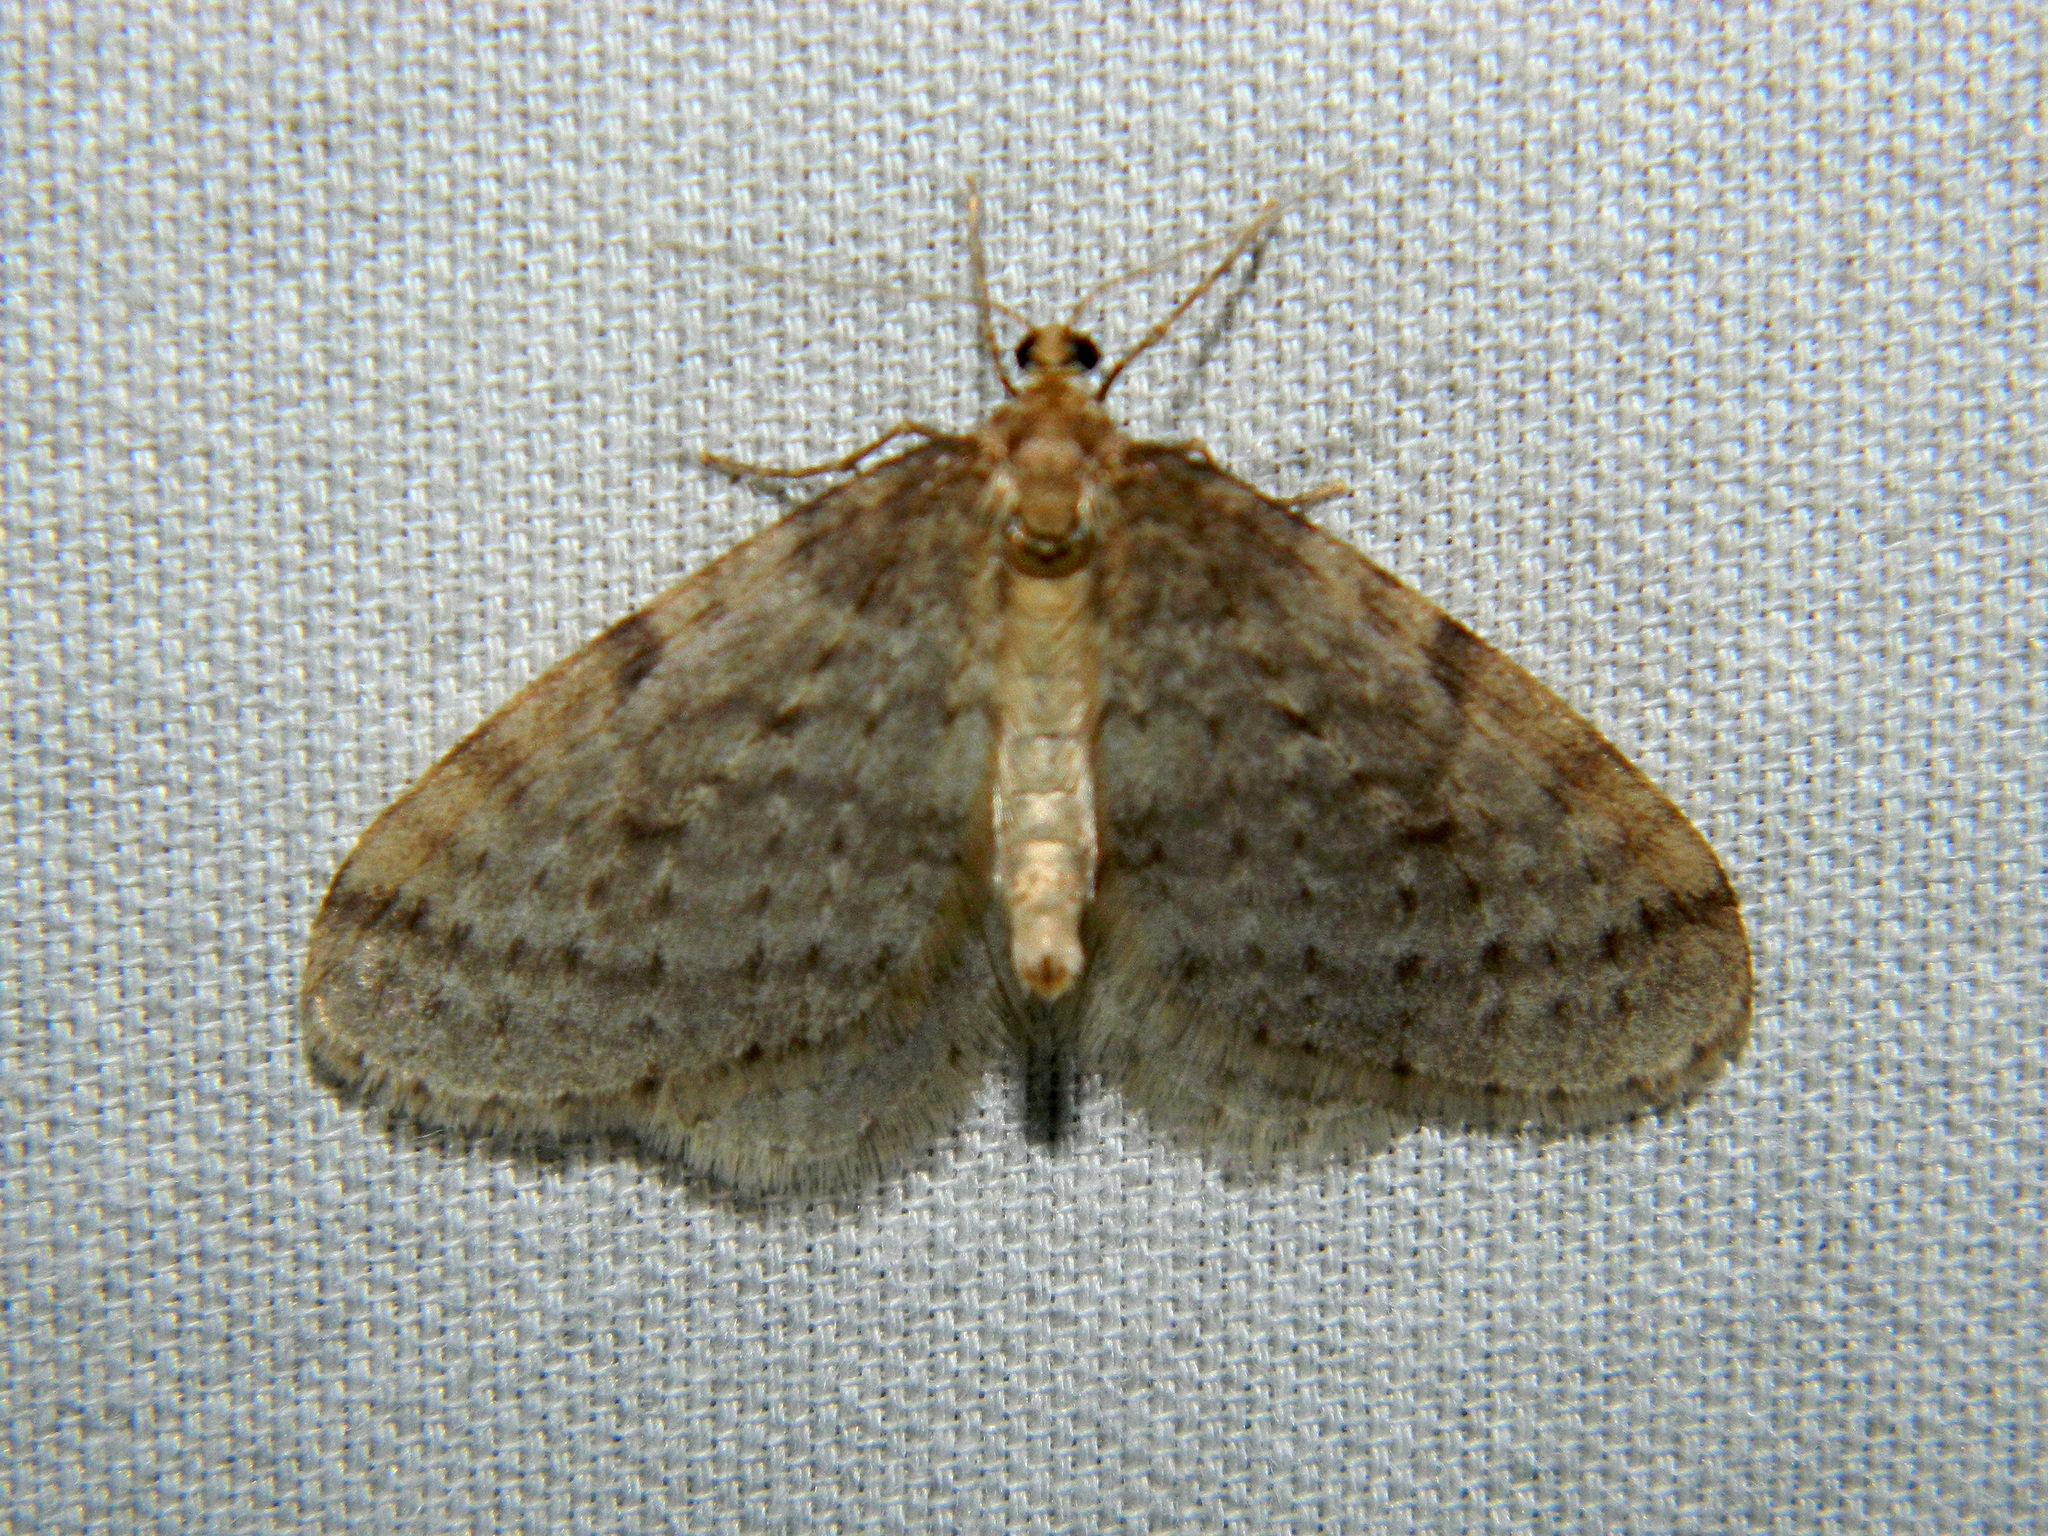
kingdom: Animalia
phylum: Arthropoda
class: Insecta
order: Lepidoptera
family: Geometridae
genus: Operophtera
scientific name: Operophtera bruceata
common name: Bruce spanworm
